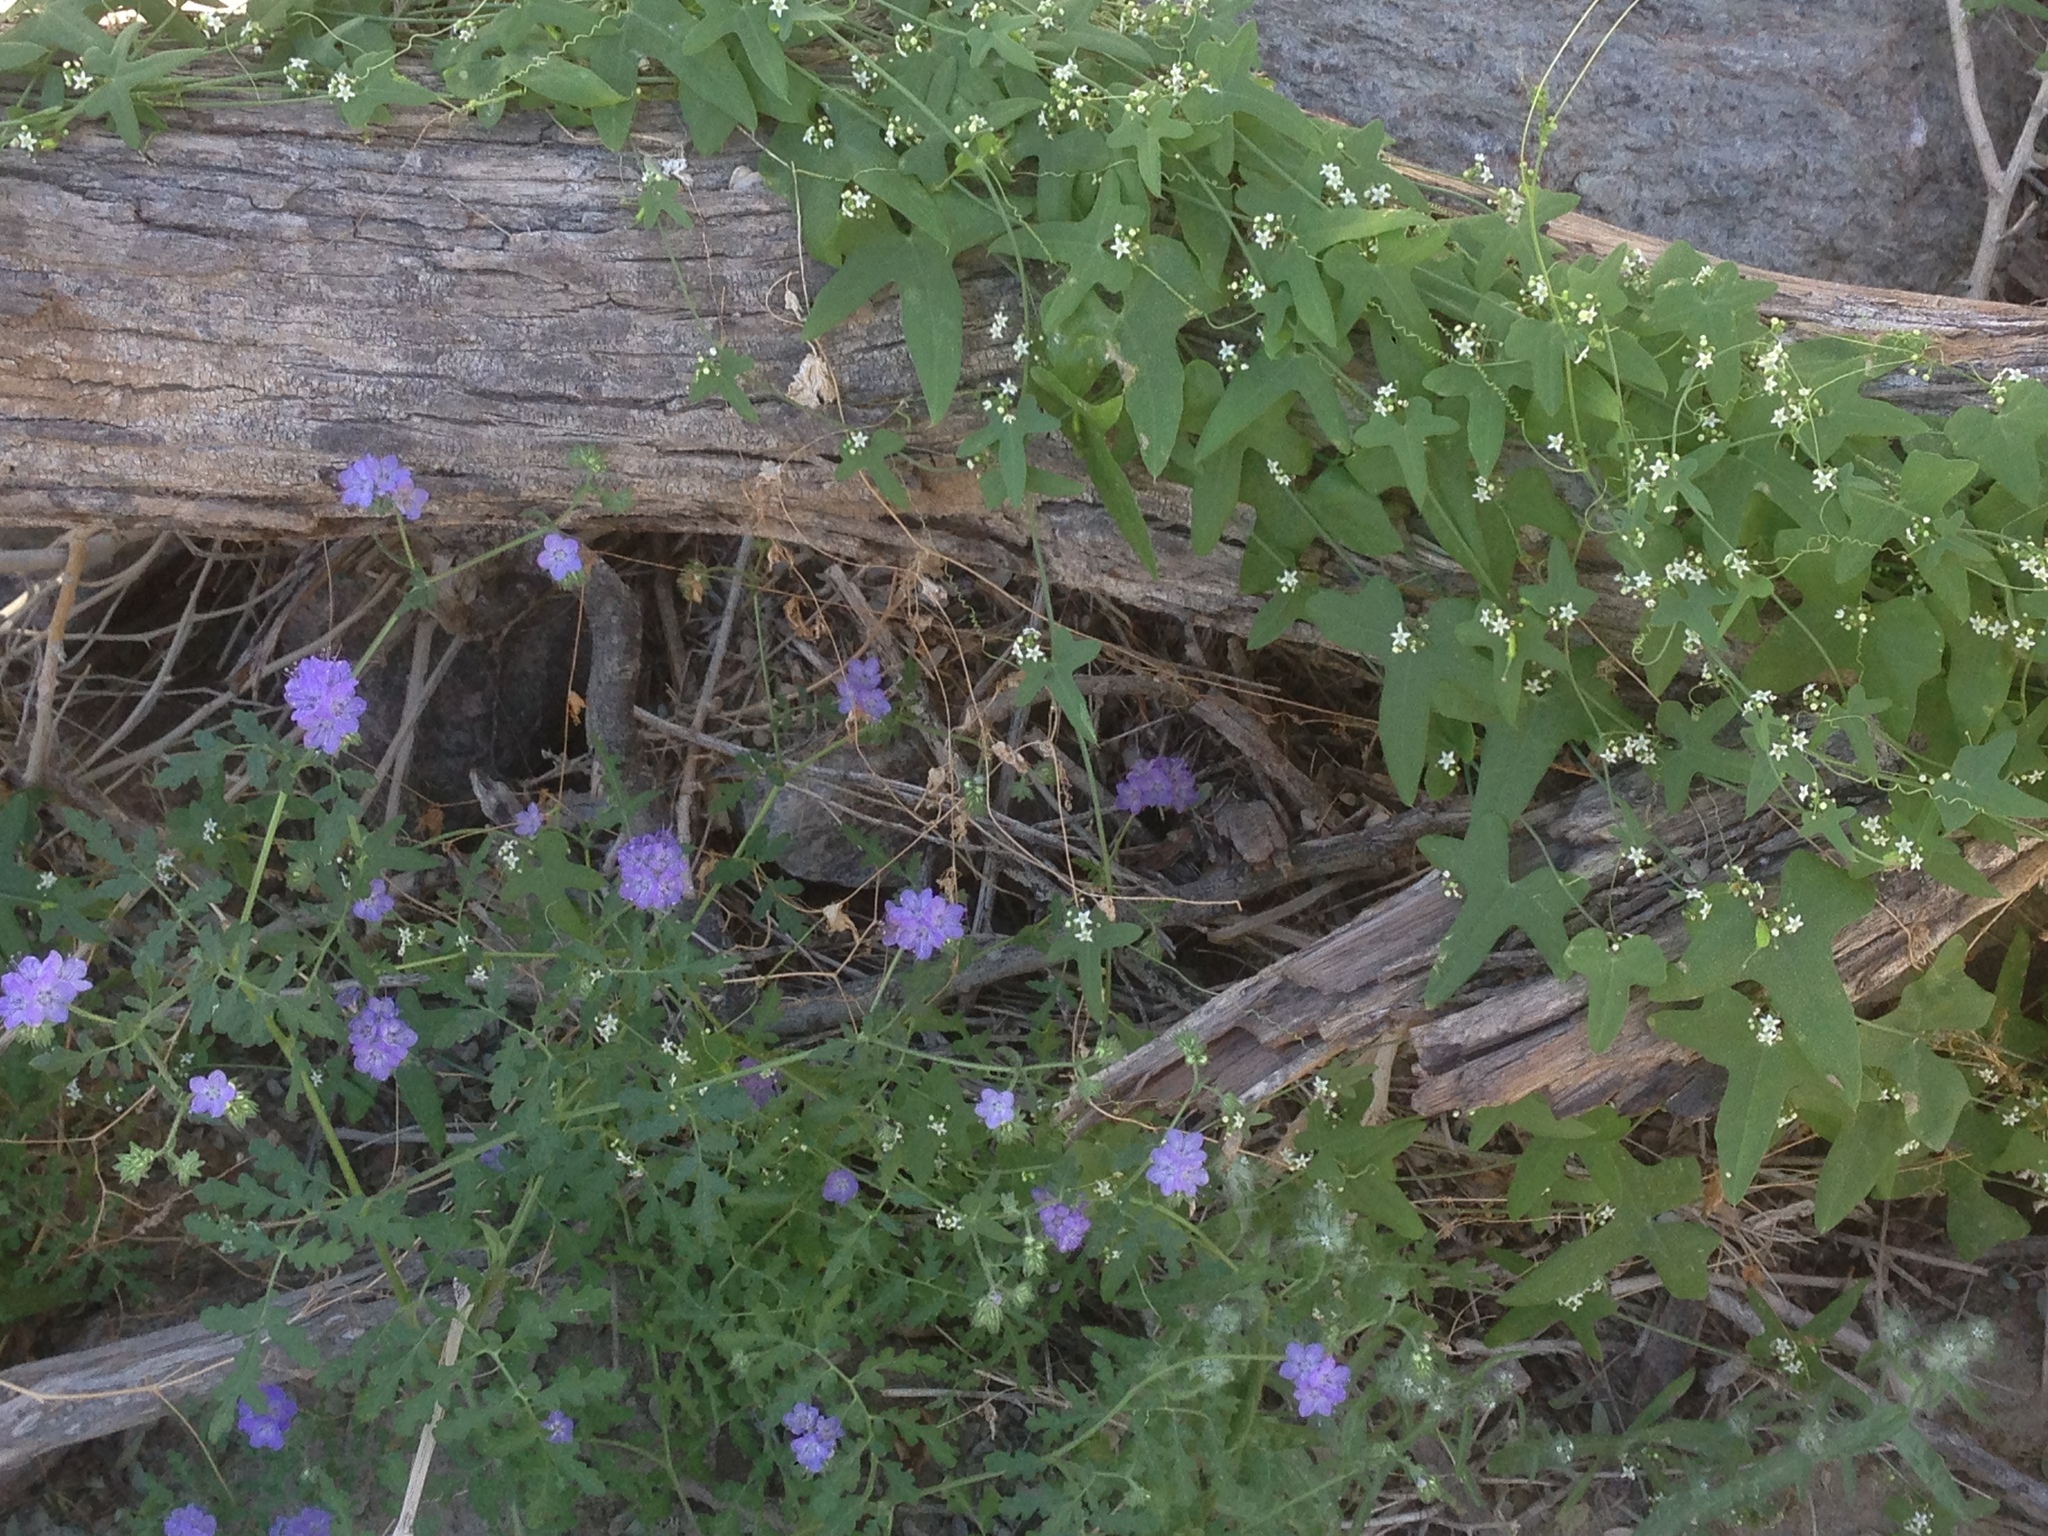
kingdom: Plantae
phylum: Tracheophyta
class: Magnoliopsida
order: Cucurbitales
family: Cucurbitaceae
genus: Echinopepon
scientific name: Echinopepon bigelovii
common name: Desert starvine
